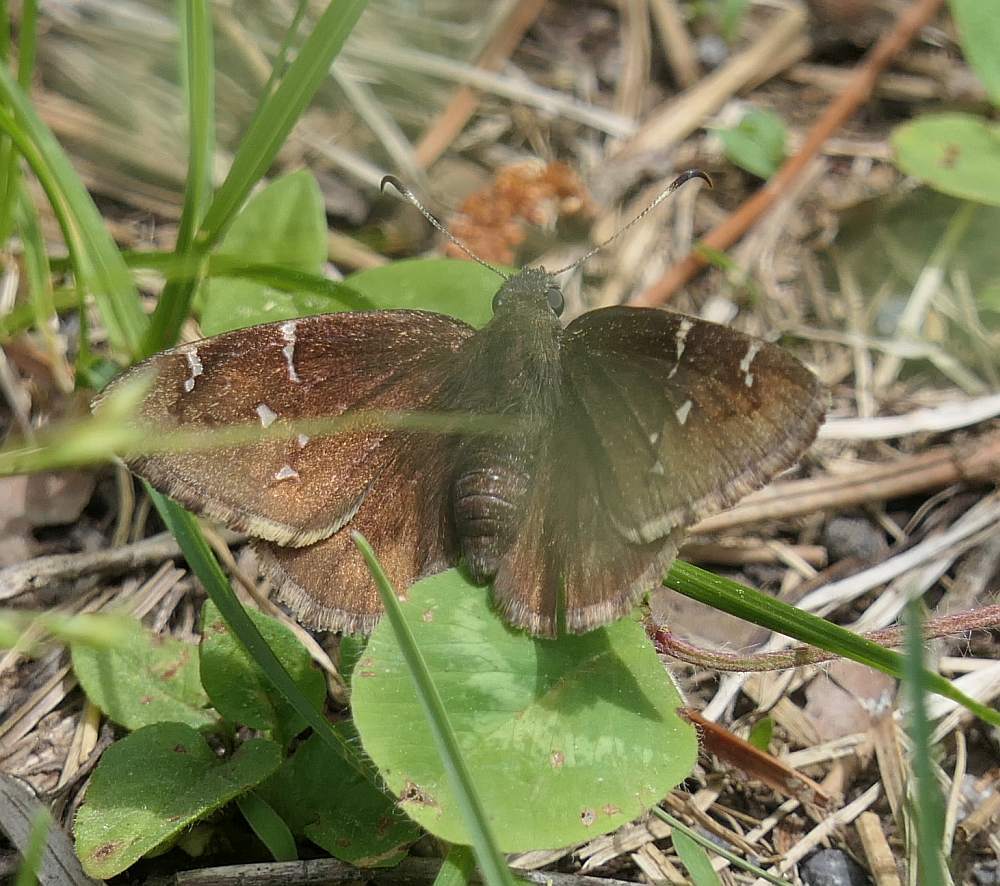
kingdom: Animalia
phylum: Arthropoda
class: Insecta
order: Lepidoptera
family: Hesperiidae
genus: Thorybes
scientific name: Thorybes pylades
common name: Northern cloudywing
